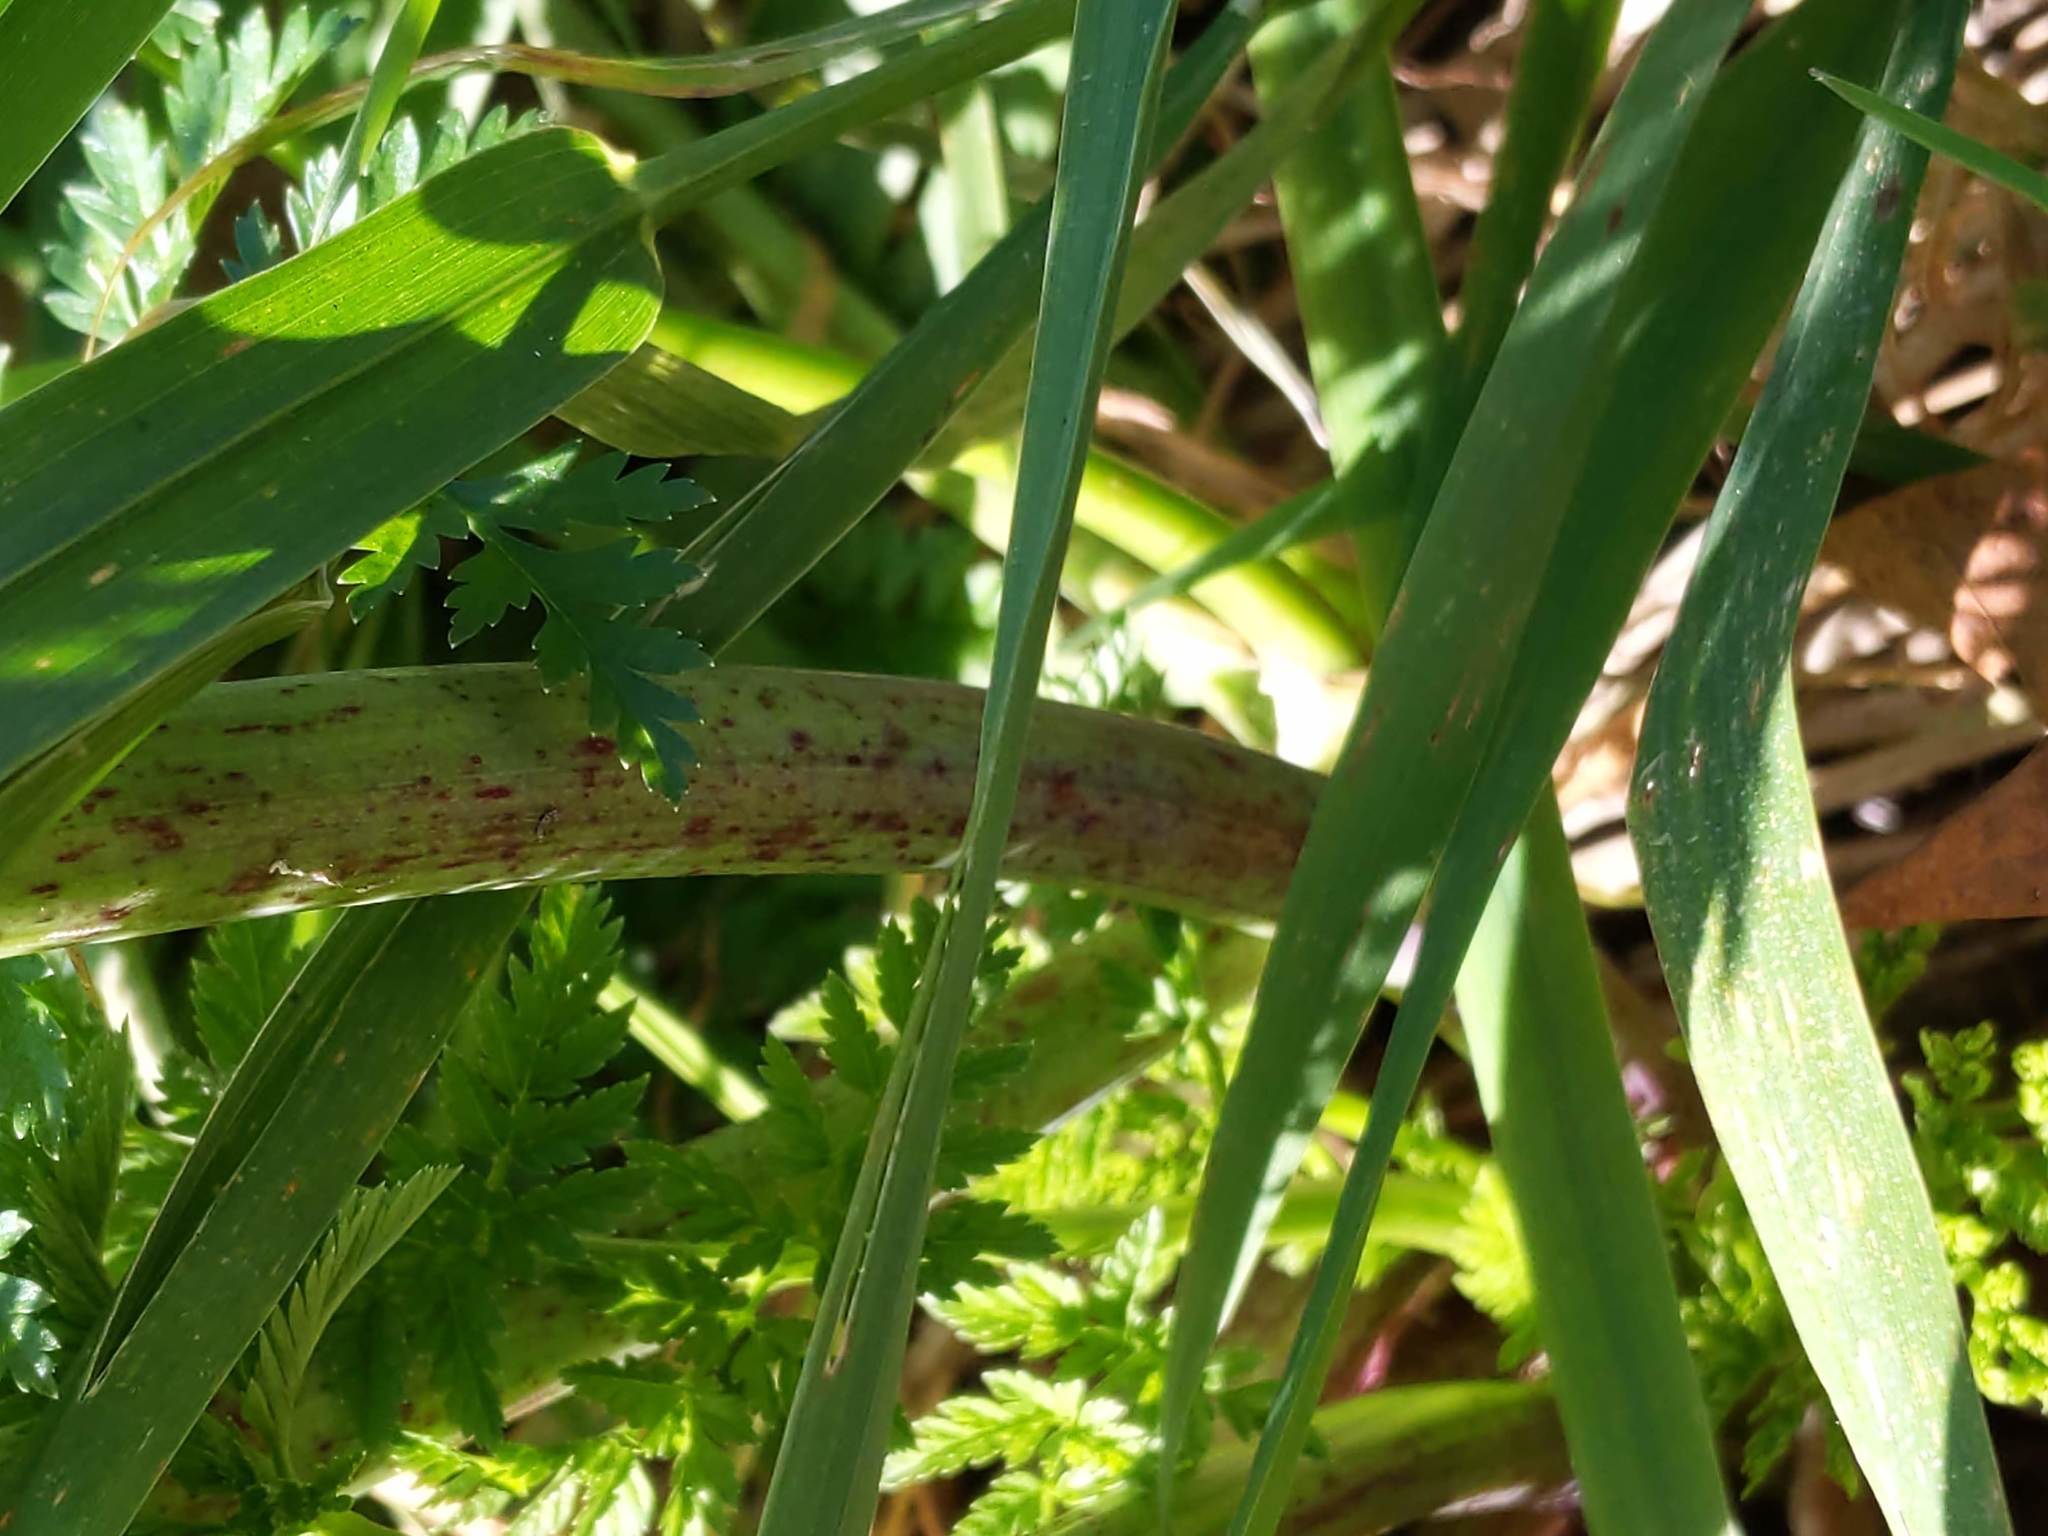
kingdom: Plantae
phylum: Tracheophyta
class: Magnoliopsida
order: Apiales
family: Apiaceae
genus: Conium
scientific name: Conium maculatum
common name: Hemlock
